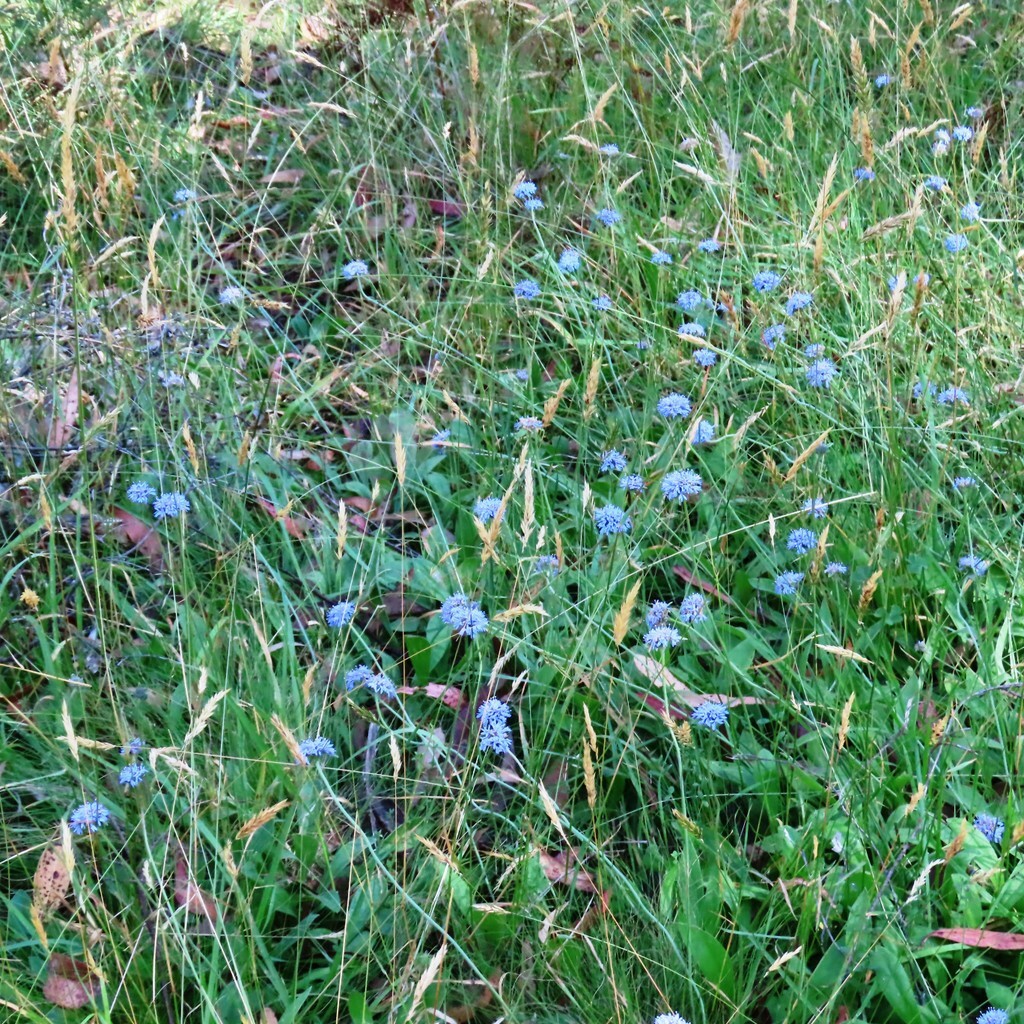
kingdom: Plantae
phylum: Tracheophyta
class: Magnoliopsida
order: Asterales
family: Goodeniaceae
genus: Brunonia
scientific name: Brunonia australis
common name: Blue pincushion
